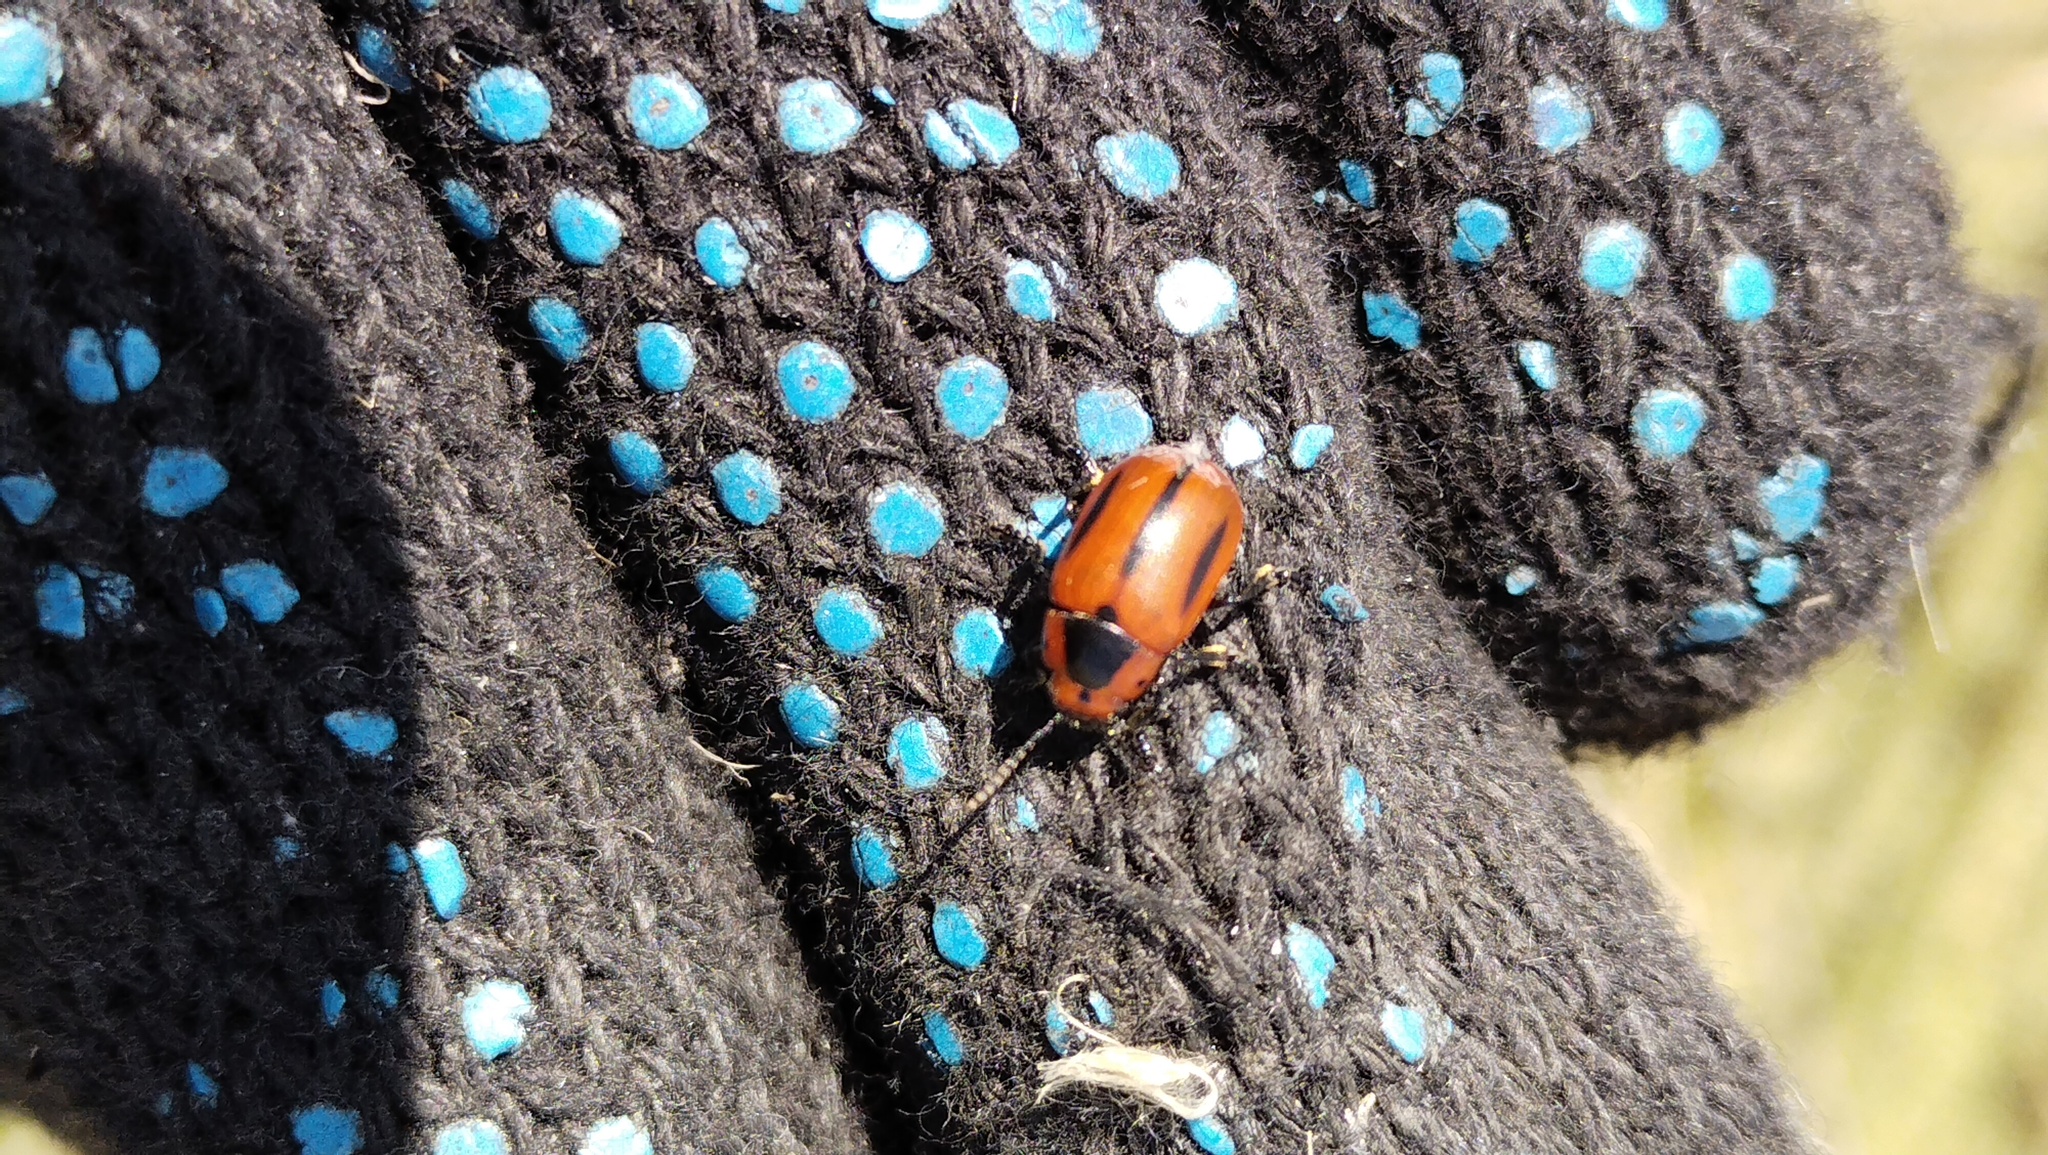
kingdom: Animalia
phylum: Arthropoda
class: Insecta
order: Coleoptera
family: Chrysomelidae
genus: Entomoscelis
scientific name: Entomoscelis adonidis
